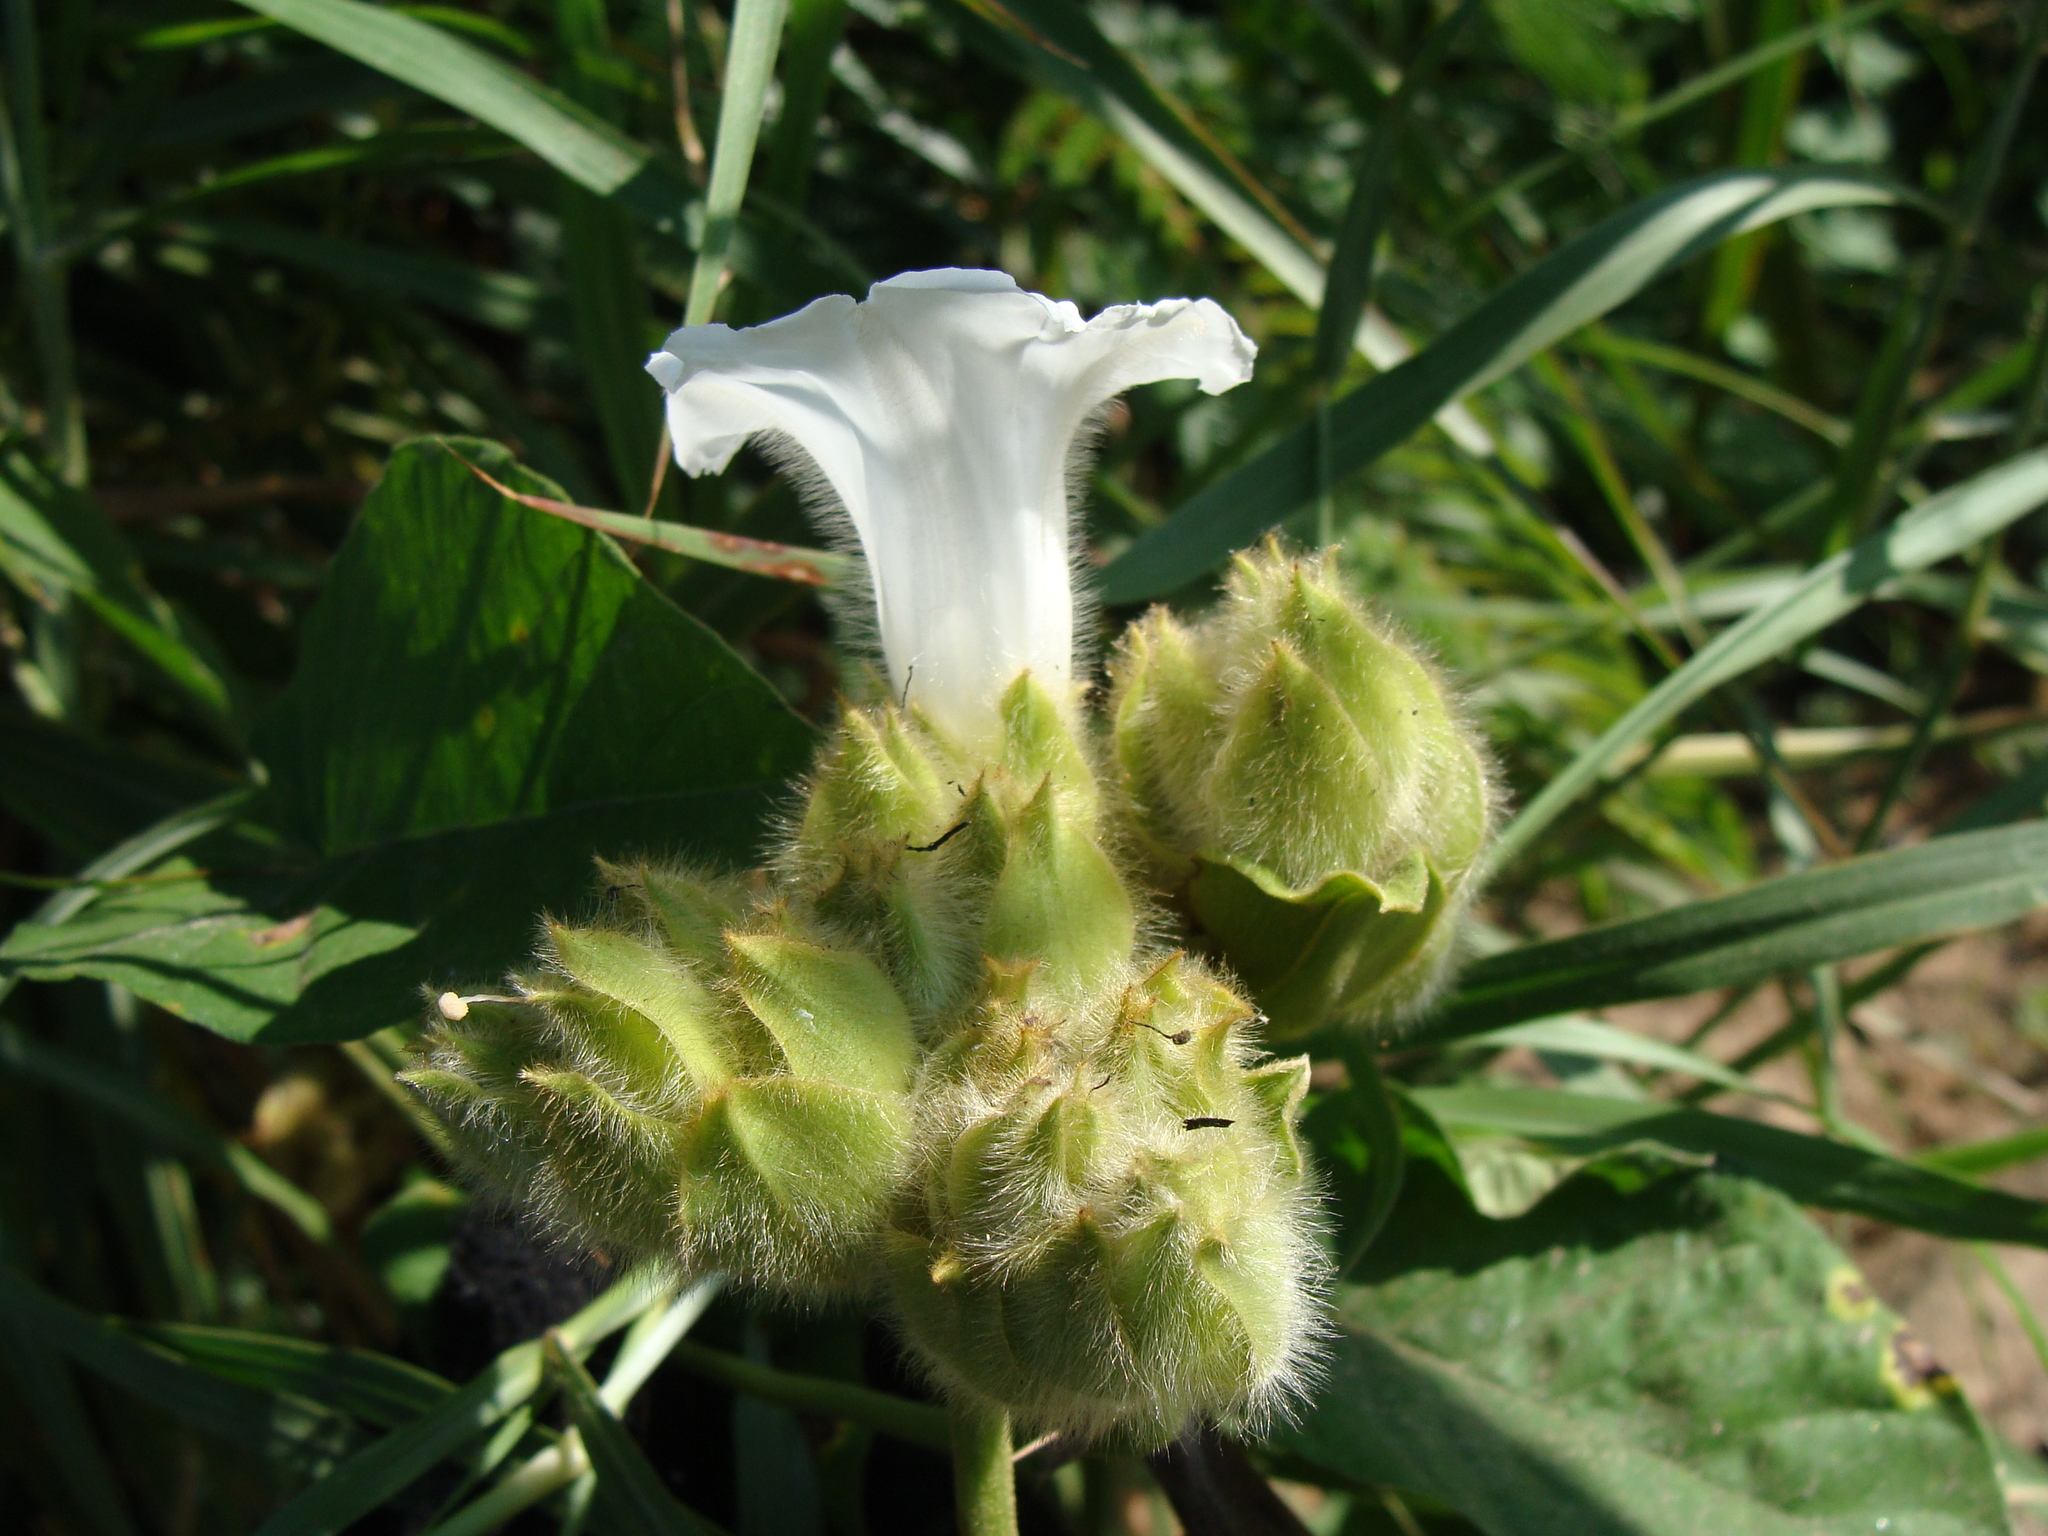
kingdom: Plantae
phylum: Tracheophyta
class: Magnoliopsida
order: Solanales
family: Convolvulaceae
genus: Odonellia
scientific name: Odonellia hirtiflora
